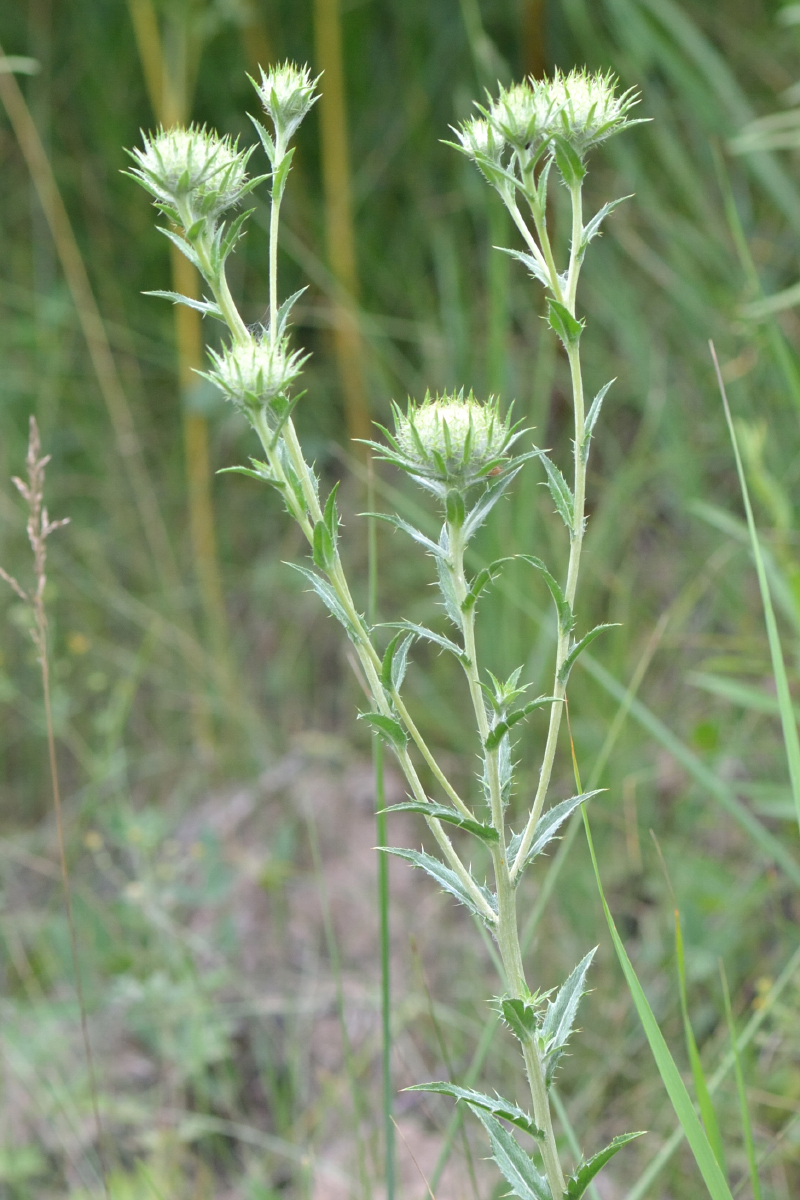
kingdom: Plantae
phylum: Tracheophyta
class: Magnoliopsida
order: Asterales
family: Asteraceae
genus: Carlina
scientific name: Carlina biebersteinii
